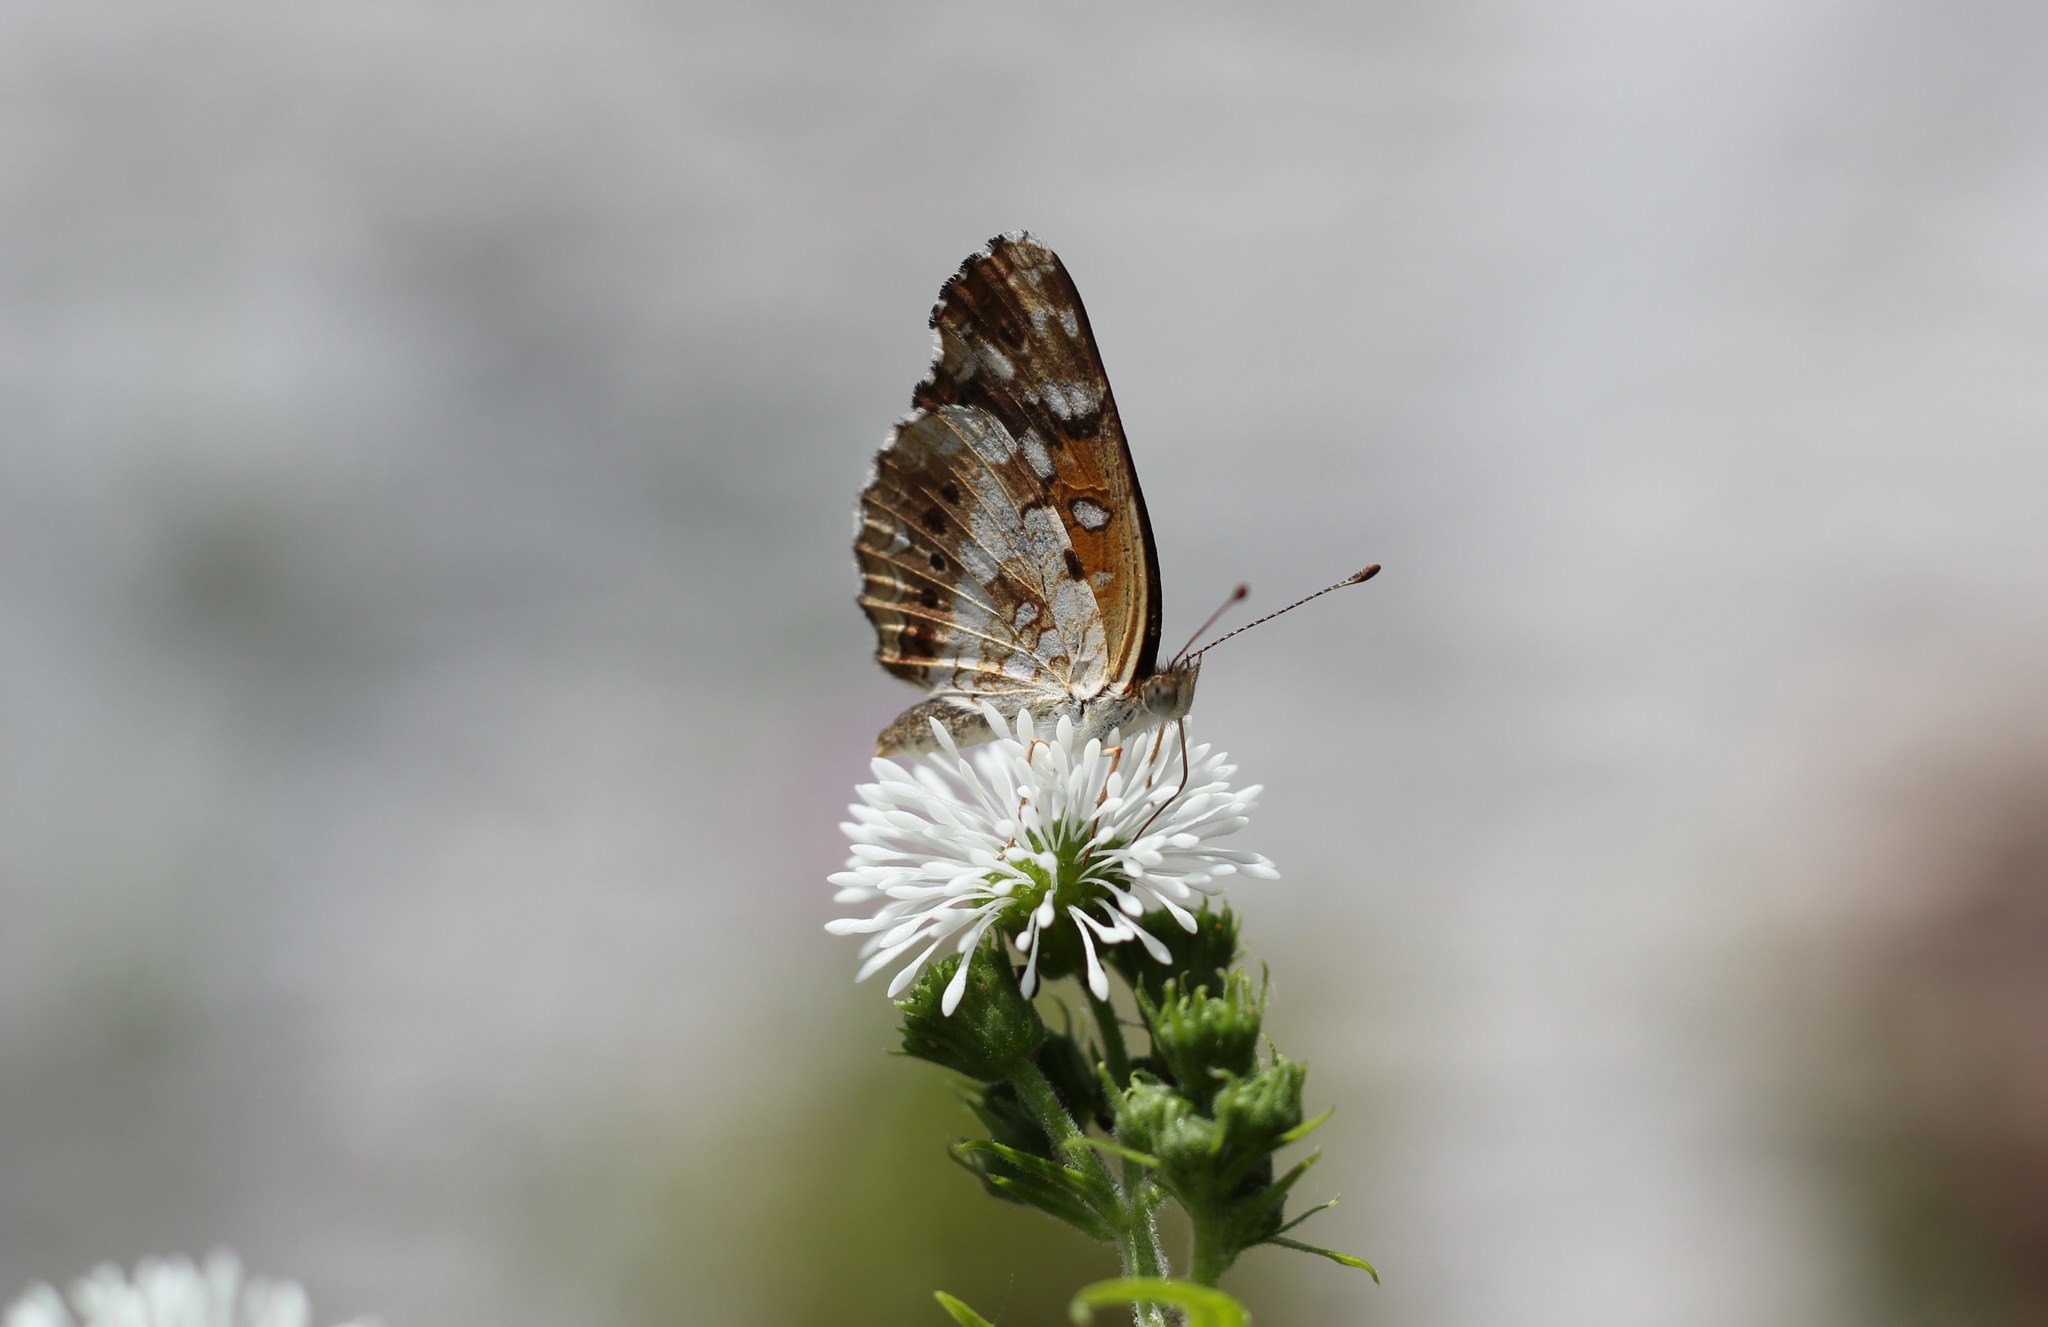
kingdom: Animalia
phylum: Arthropoda
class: Insecta
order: Lepidoptera
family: Nymphalidae
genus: Ortilia
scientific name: Ortilia ithra
